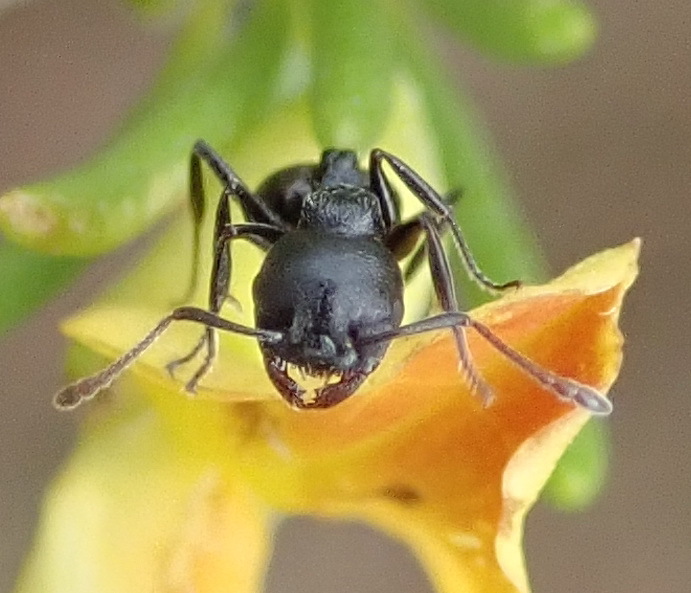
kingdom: Animalia
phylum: Arthropoda
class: Insecta
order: Hymenoptera
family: Formicidae
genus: Crematogaster
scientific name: Crematogaster peringueyi
